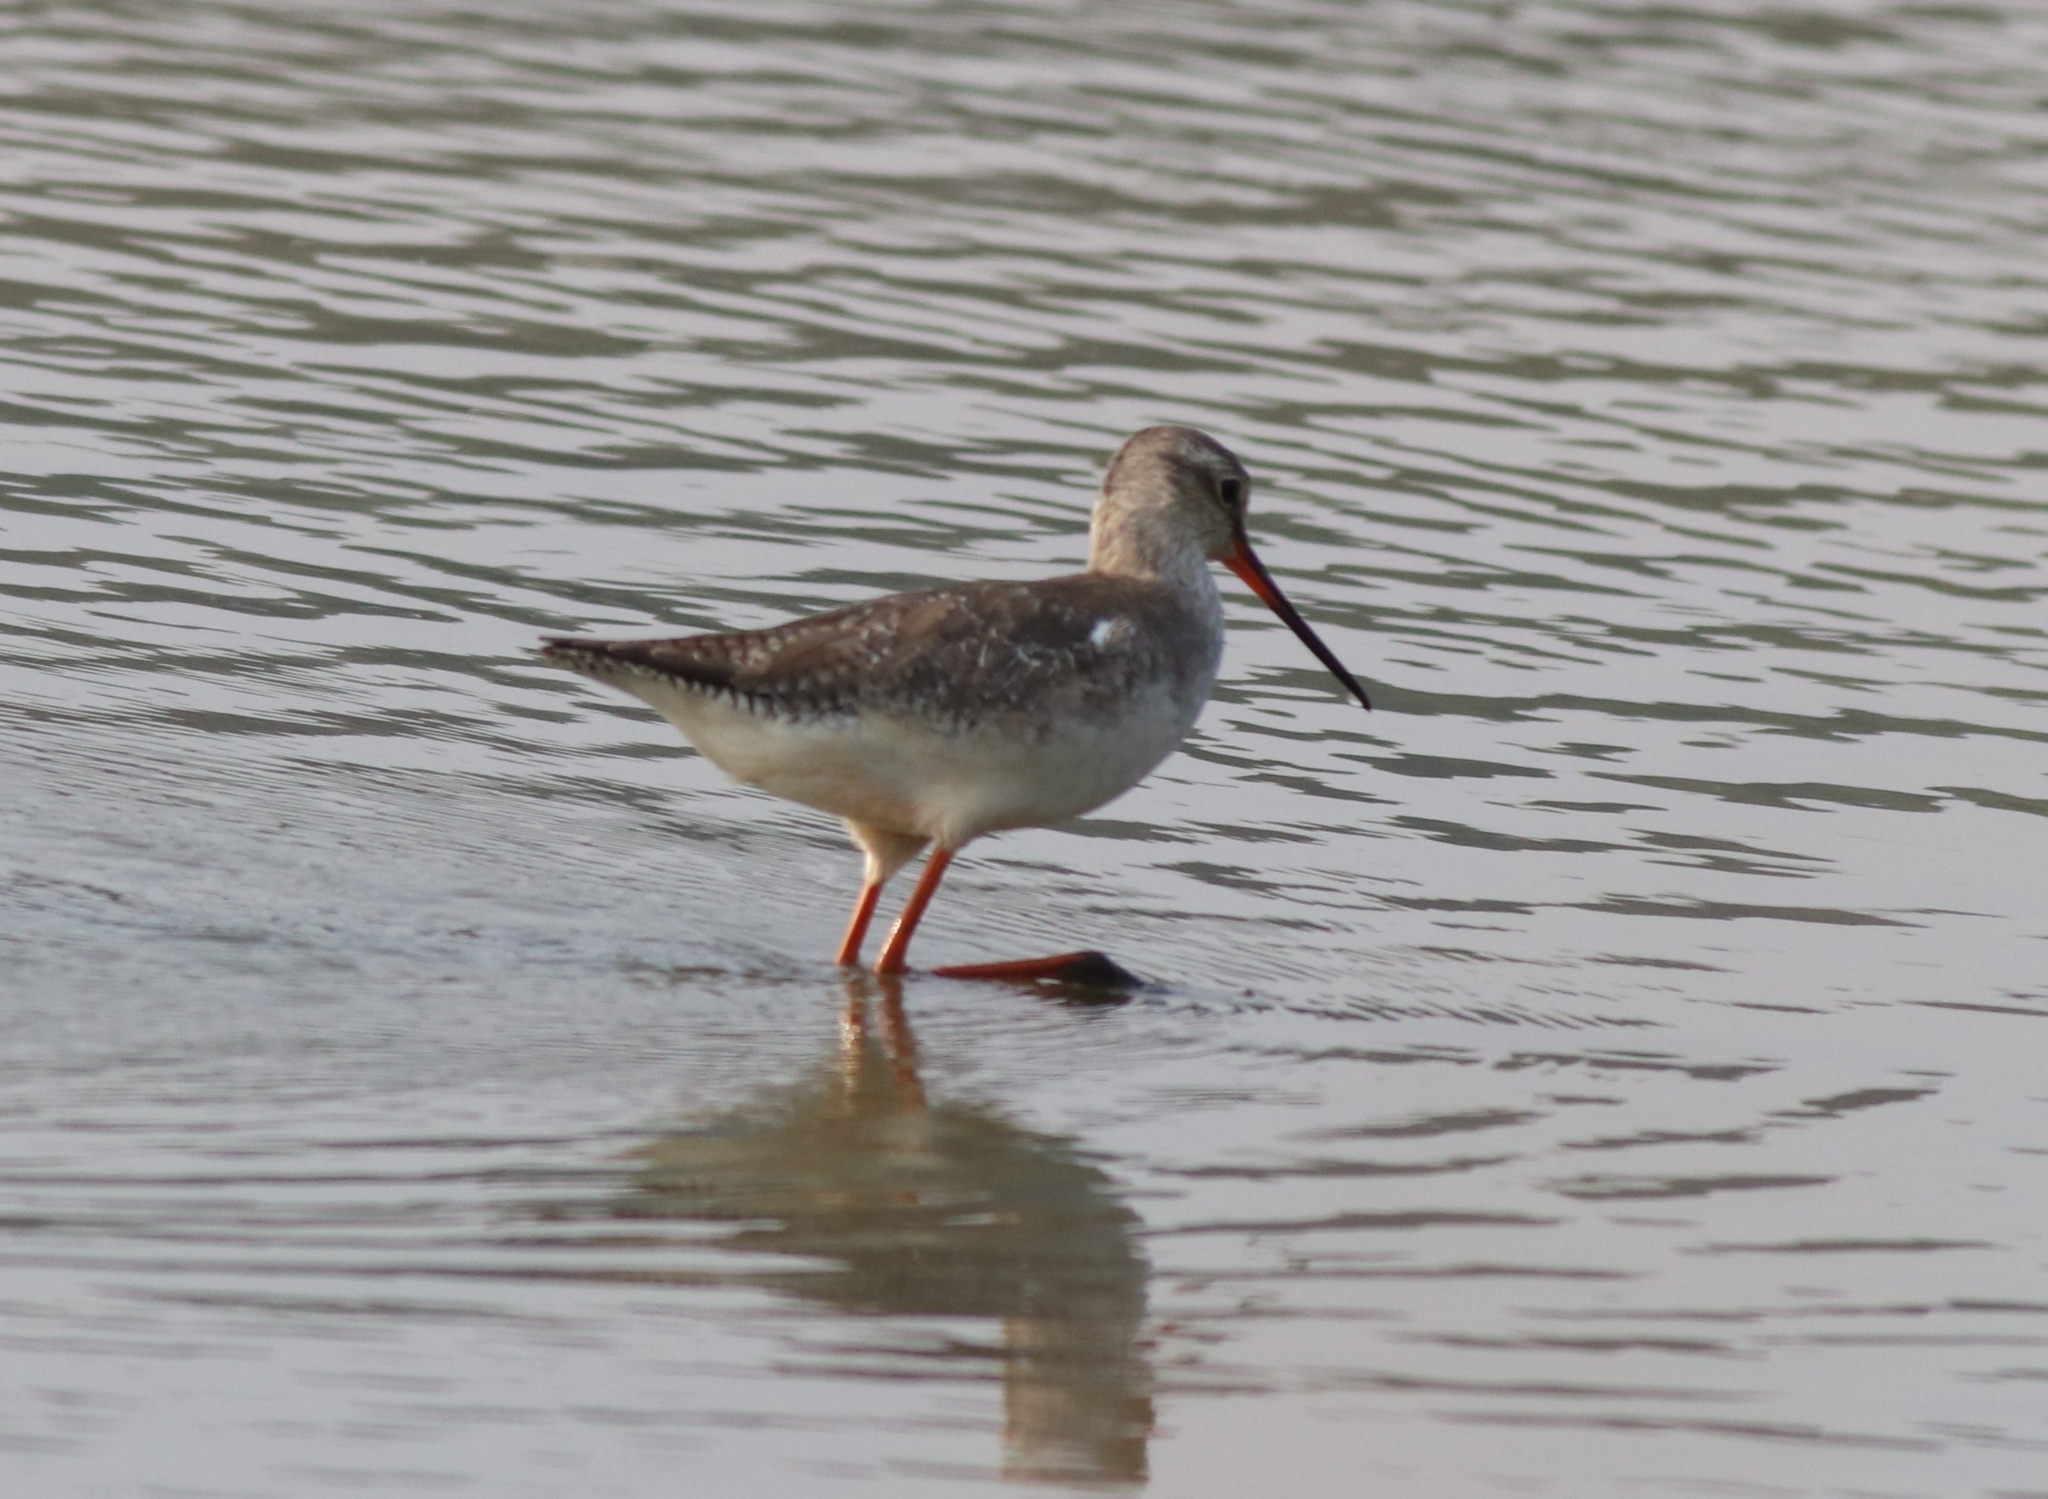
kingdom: Animalia
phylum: Chordata
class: Aves
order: Charadriiformes
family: Scolopacidae
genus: Tringa
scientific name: Tringa erythropus
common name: Spotted redshank
